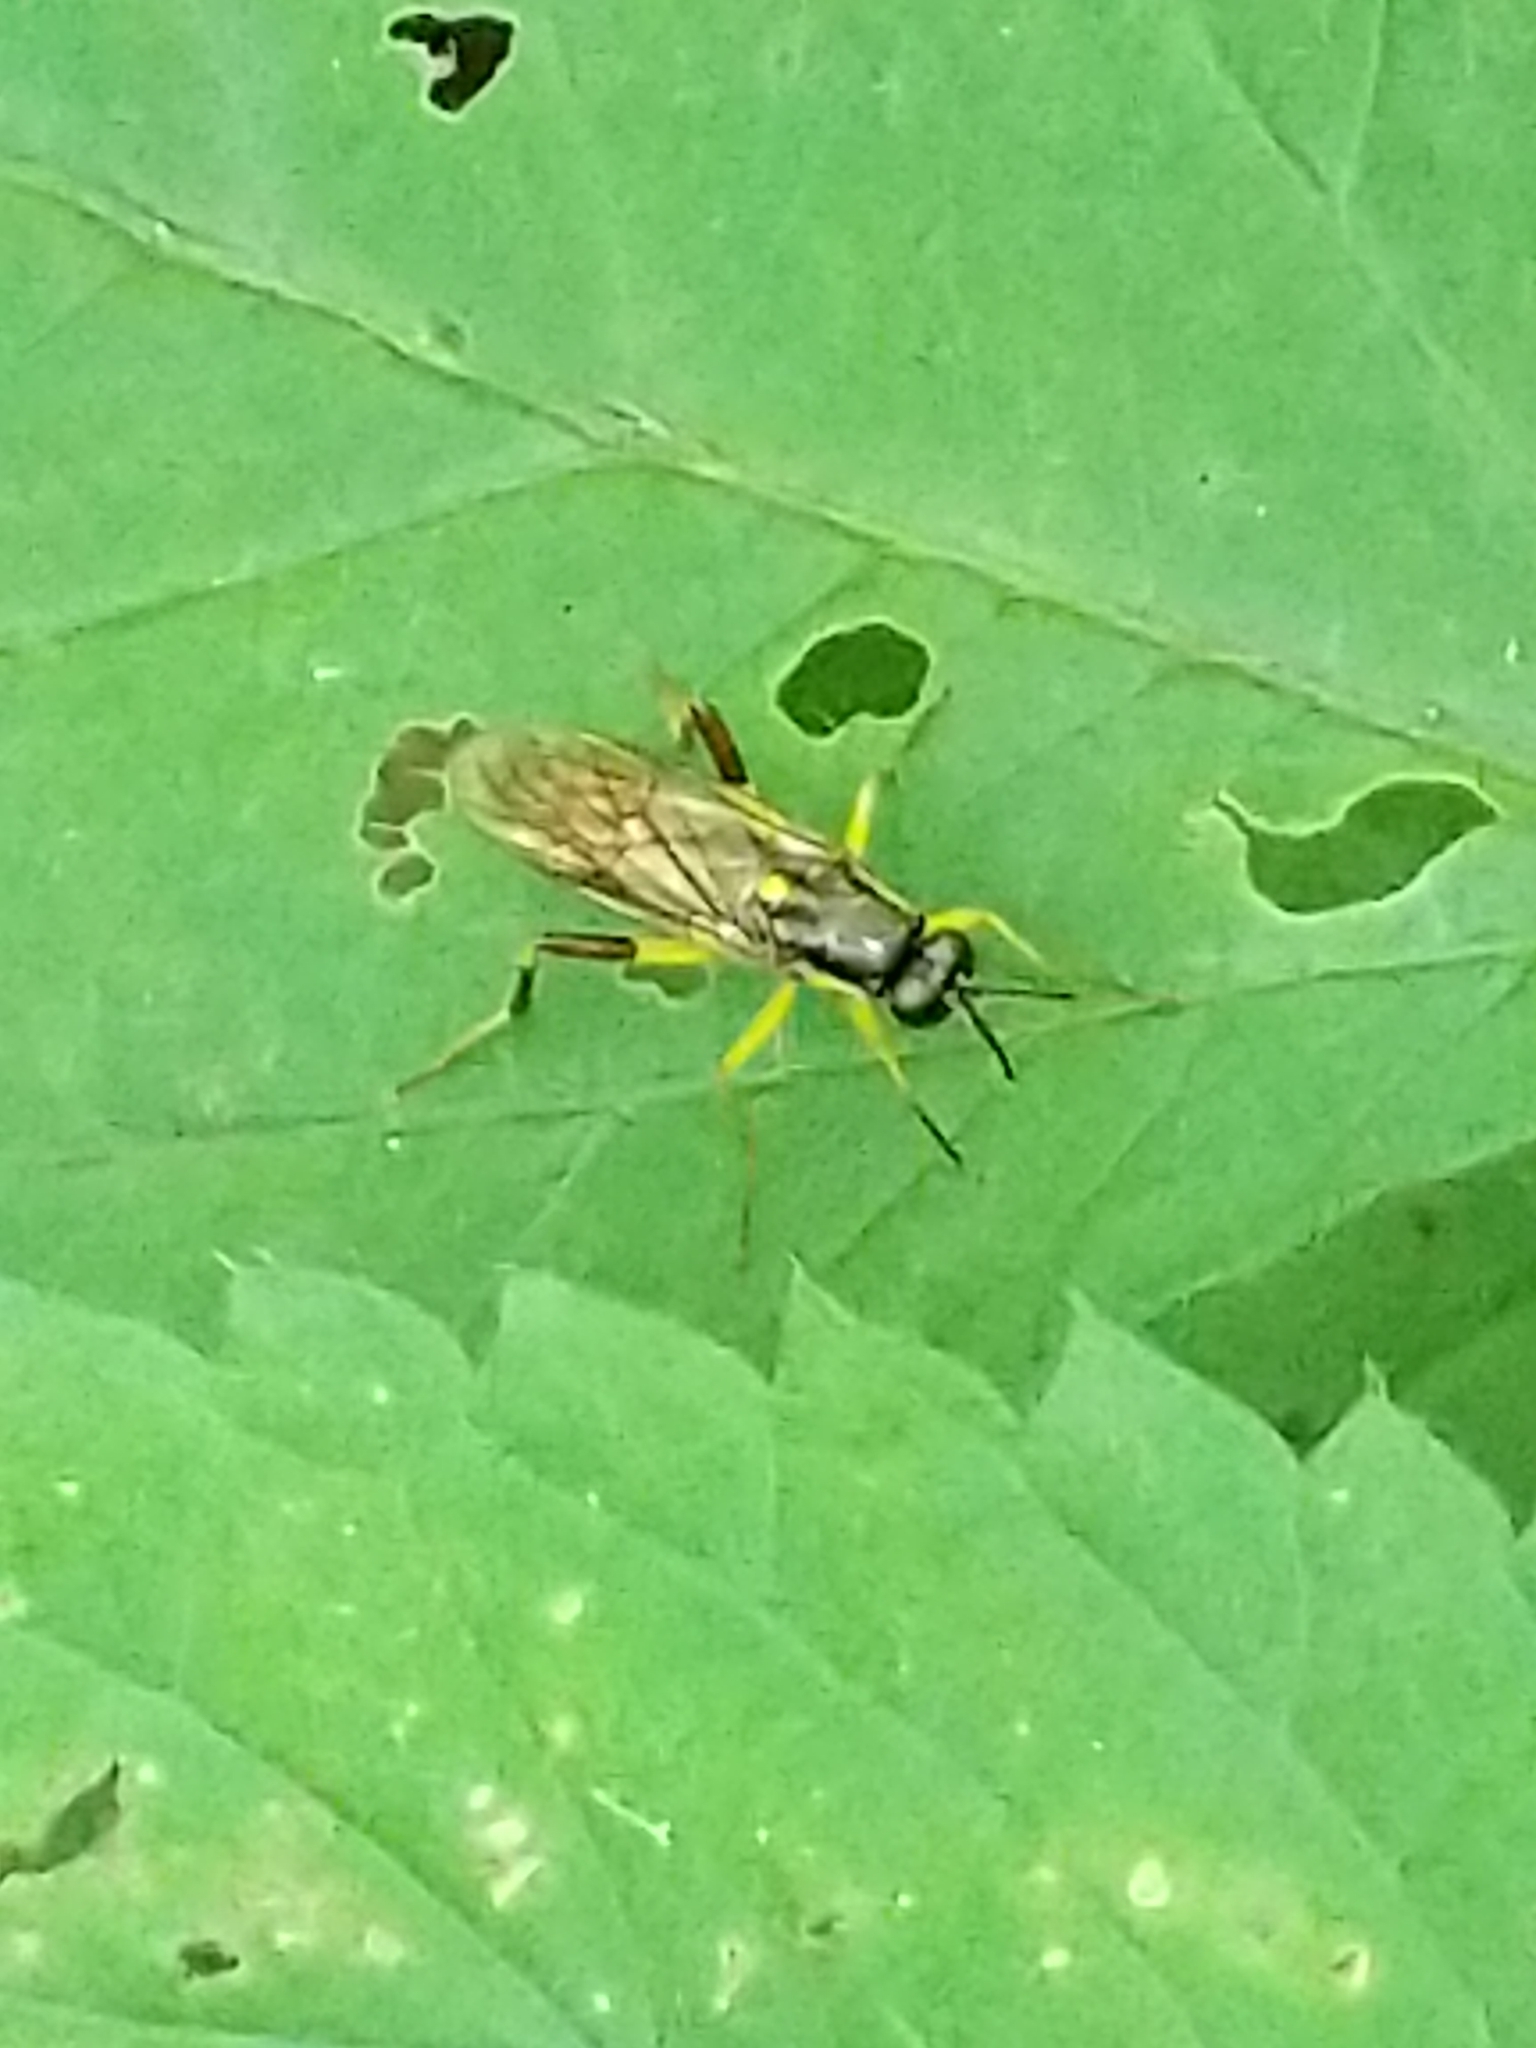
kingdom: Animalia
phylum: Arthropoda
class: Insecta
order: Diptera
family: Xylomyidae
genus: Xylomya
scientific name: Xylomya simillima
